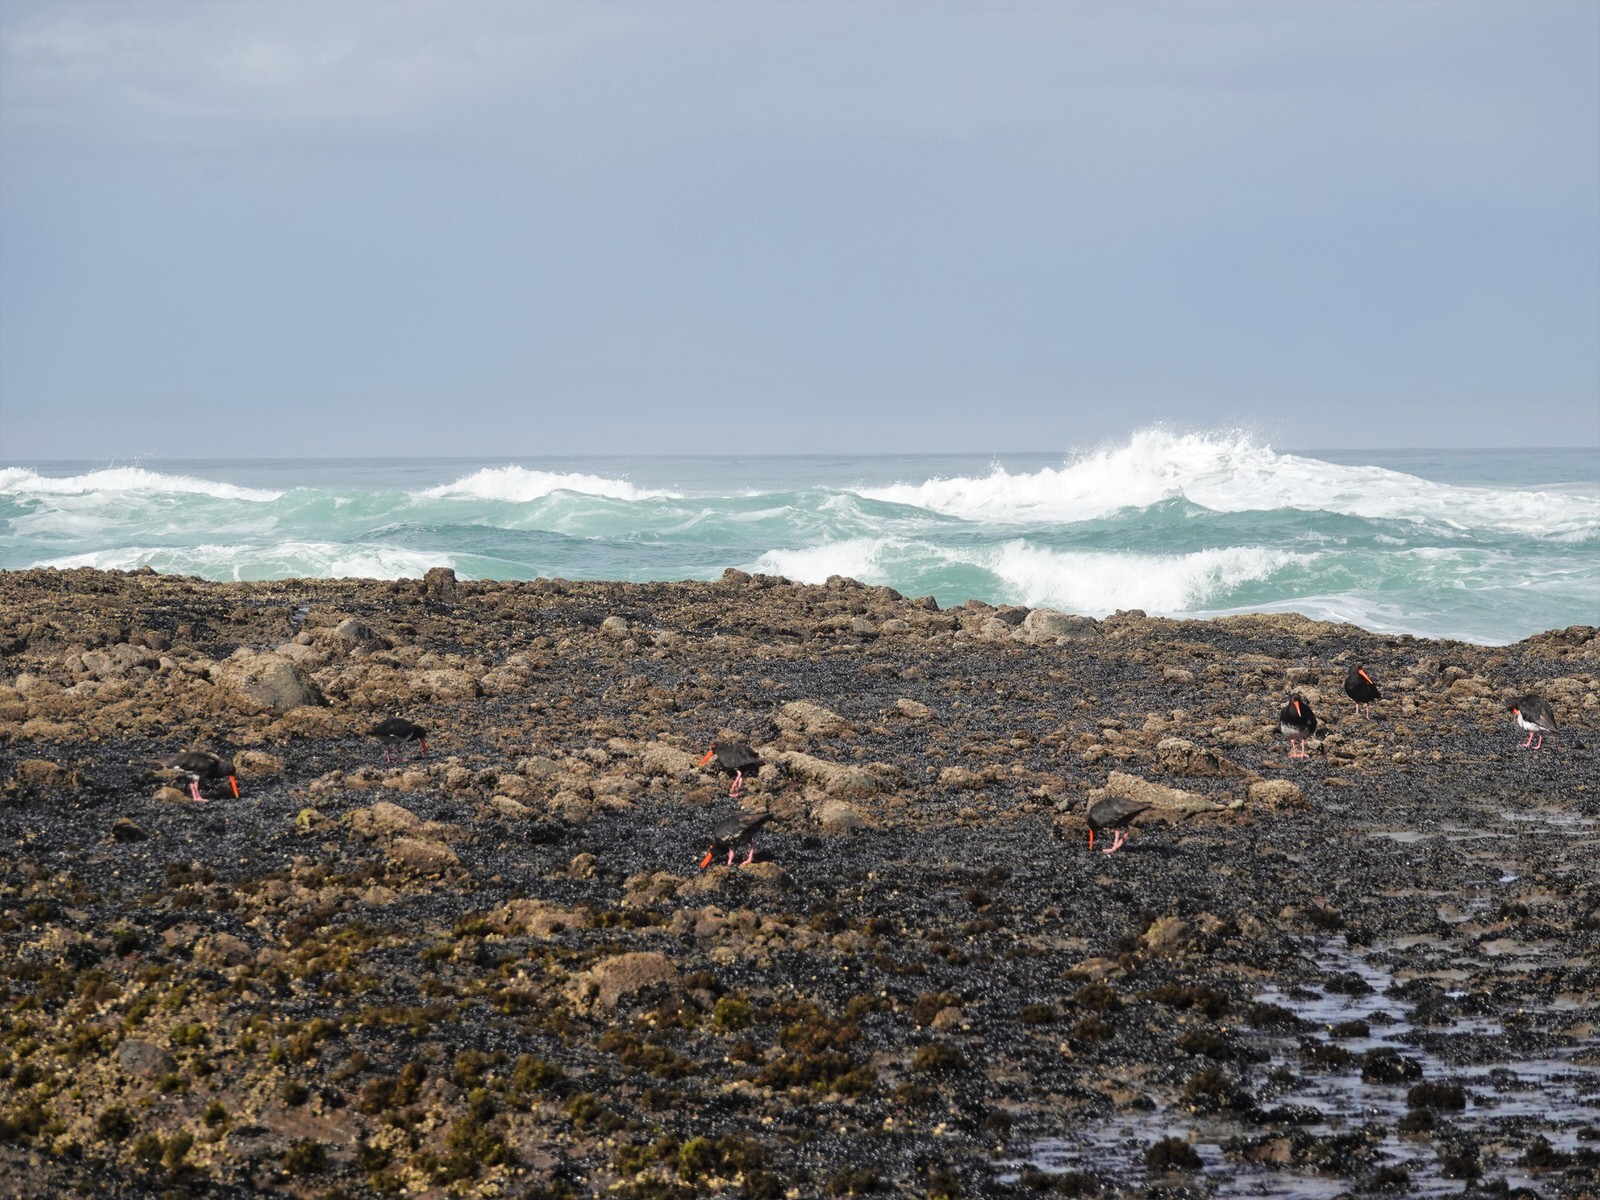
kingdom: Animalia
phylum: Chordata
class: Aves
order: Charadriiformes
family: Haematopodidae
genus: Haematopus
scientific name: Haematopus unicolor
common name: Variable oystercatcher
